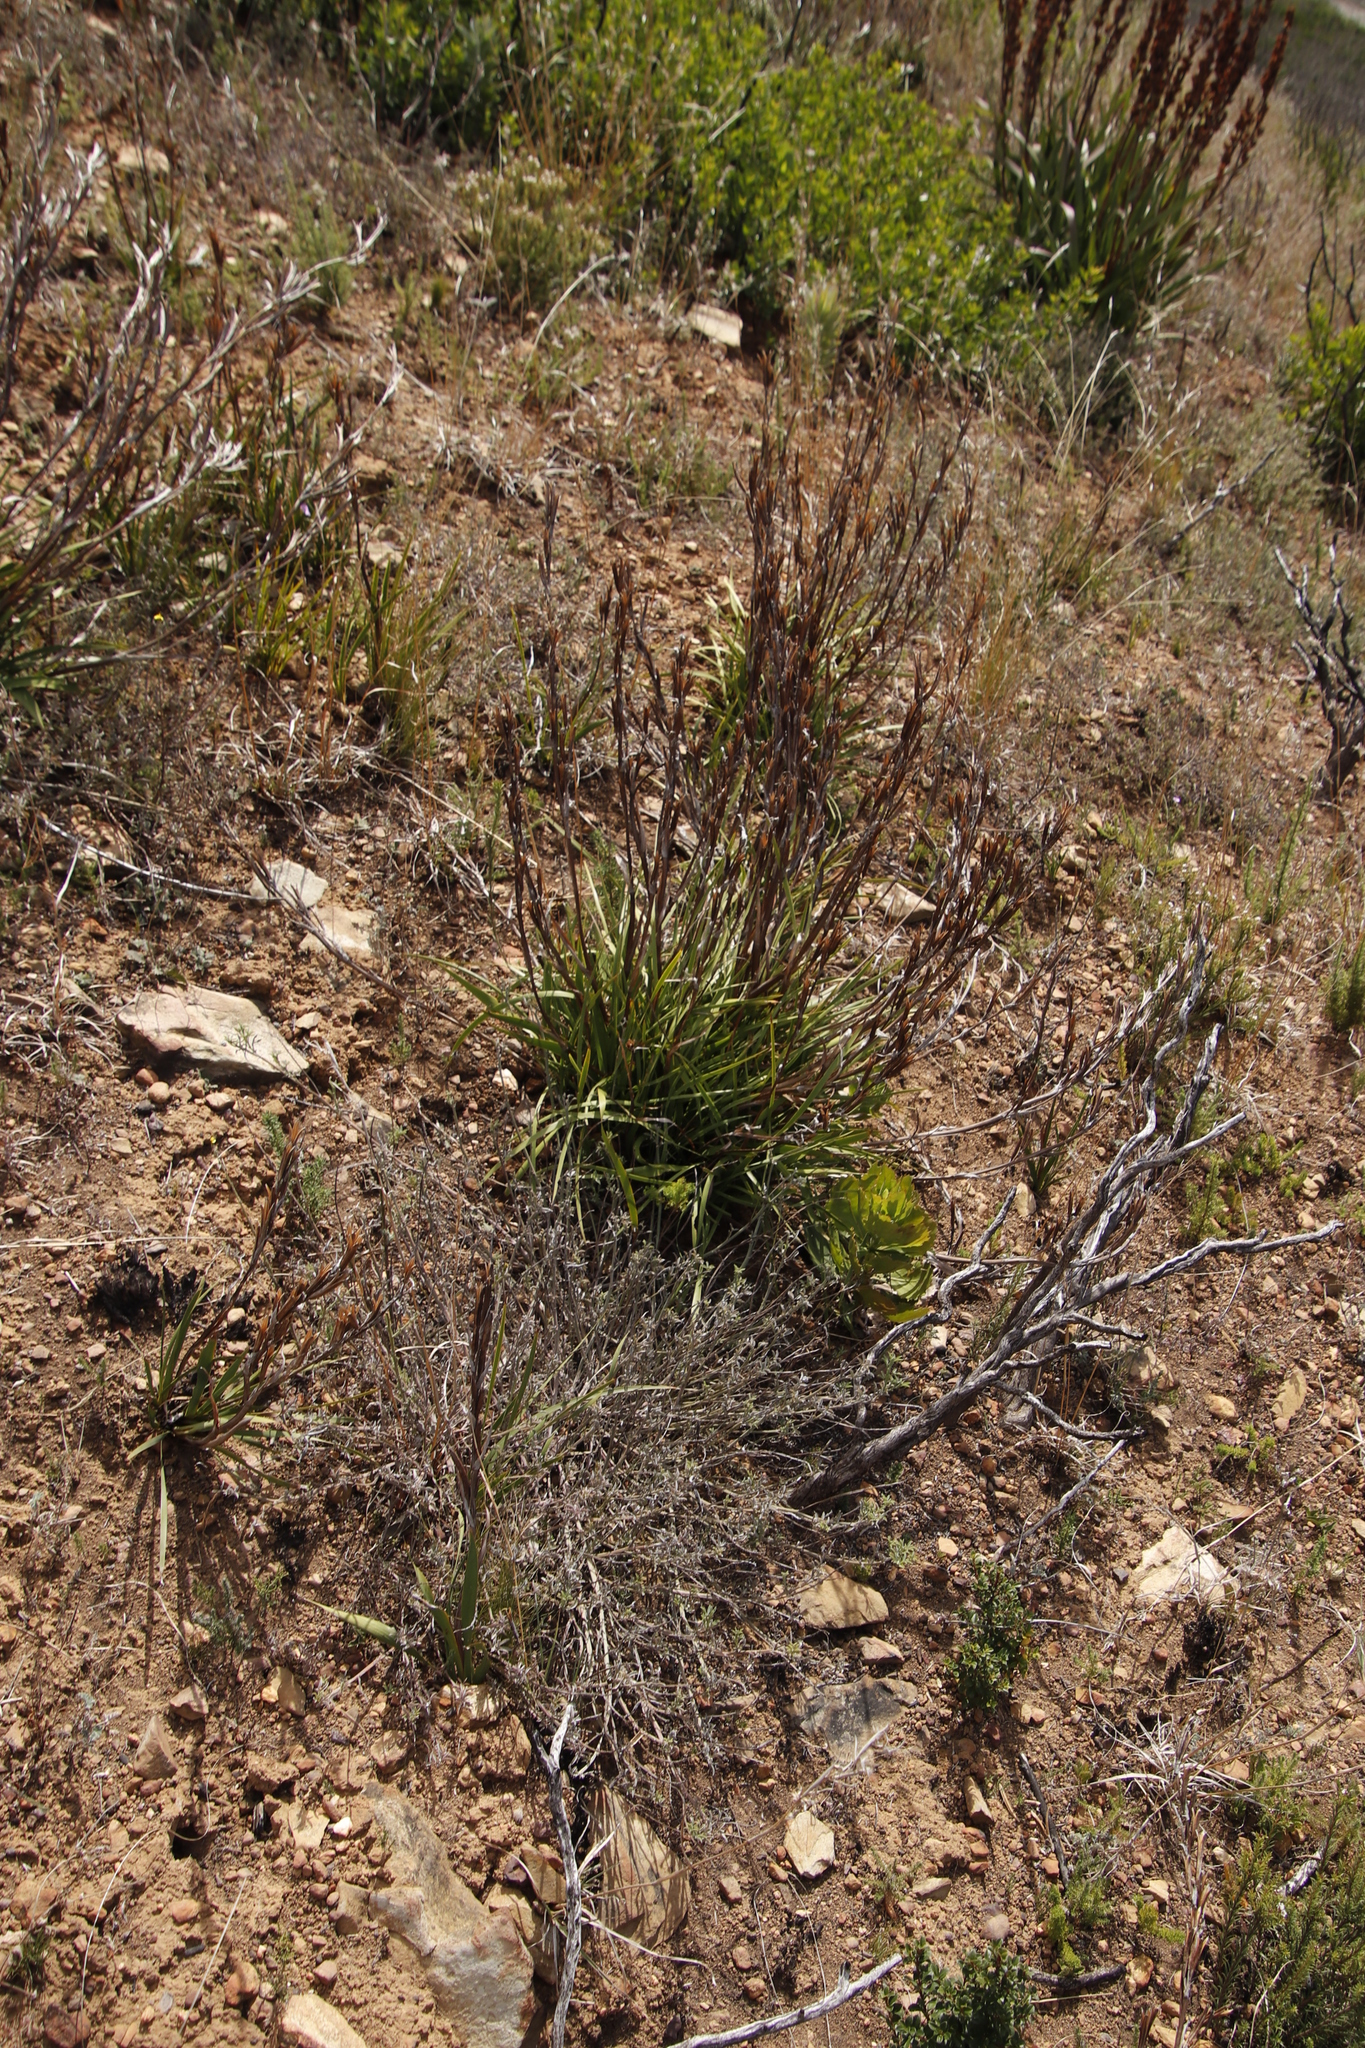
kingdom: Plantae
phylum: Tracheophyta
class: Magnoliopsida
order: Asterales
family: Asteraceae
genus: Corymbium
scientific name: Corymbium glabrum
